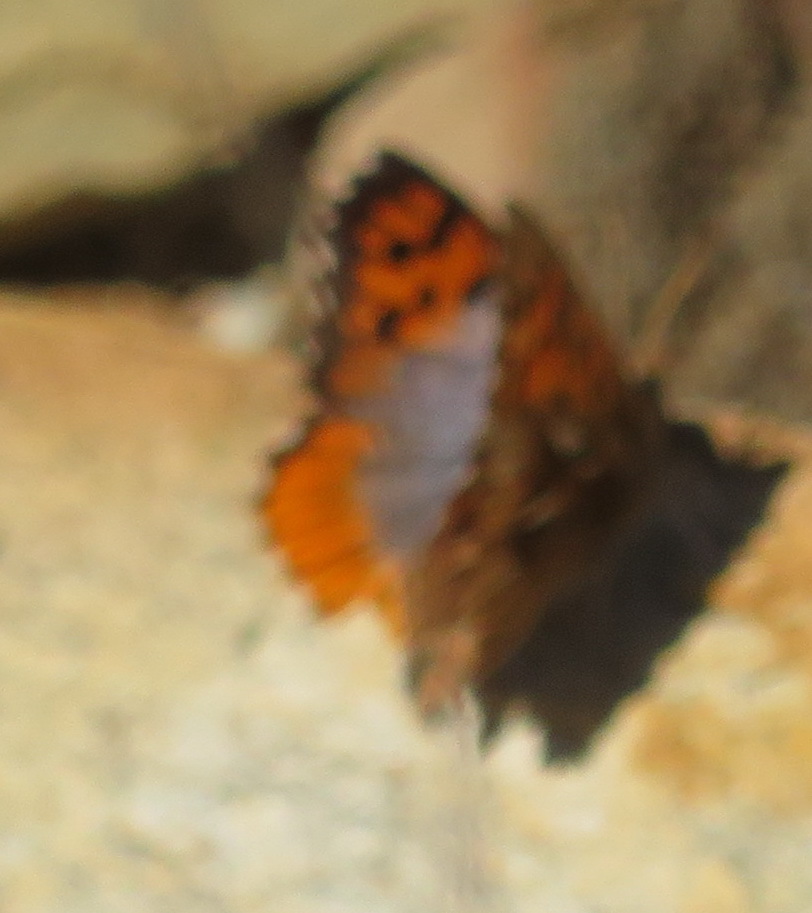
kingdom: Animalia
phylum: Arthropoda
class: Insecta
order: Lepidoptera
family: Lycaenidae
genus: Poecilmitis
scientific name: Poecilmitis beulah
